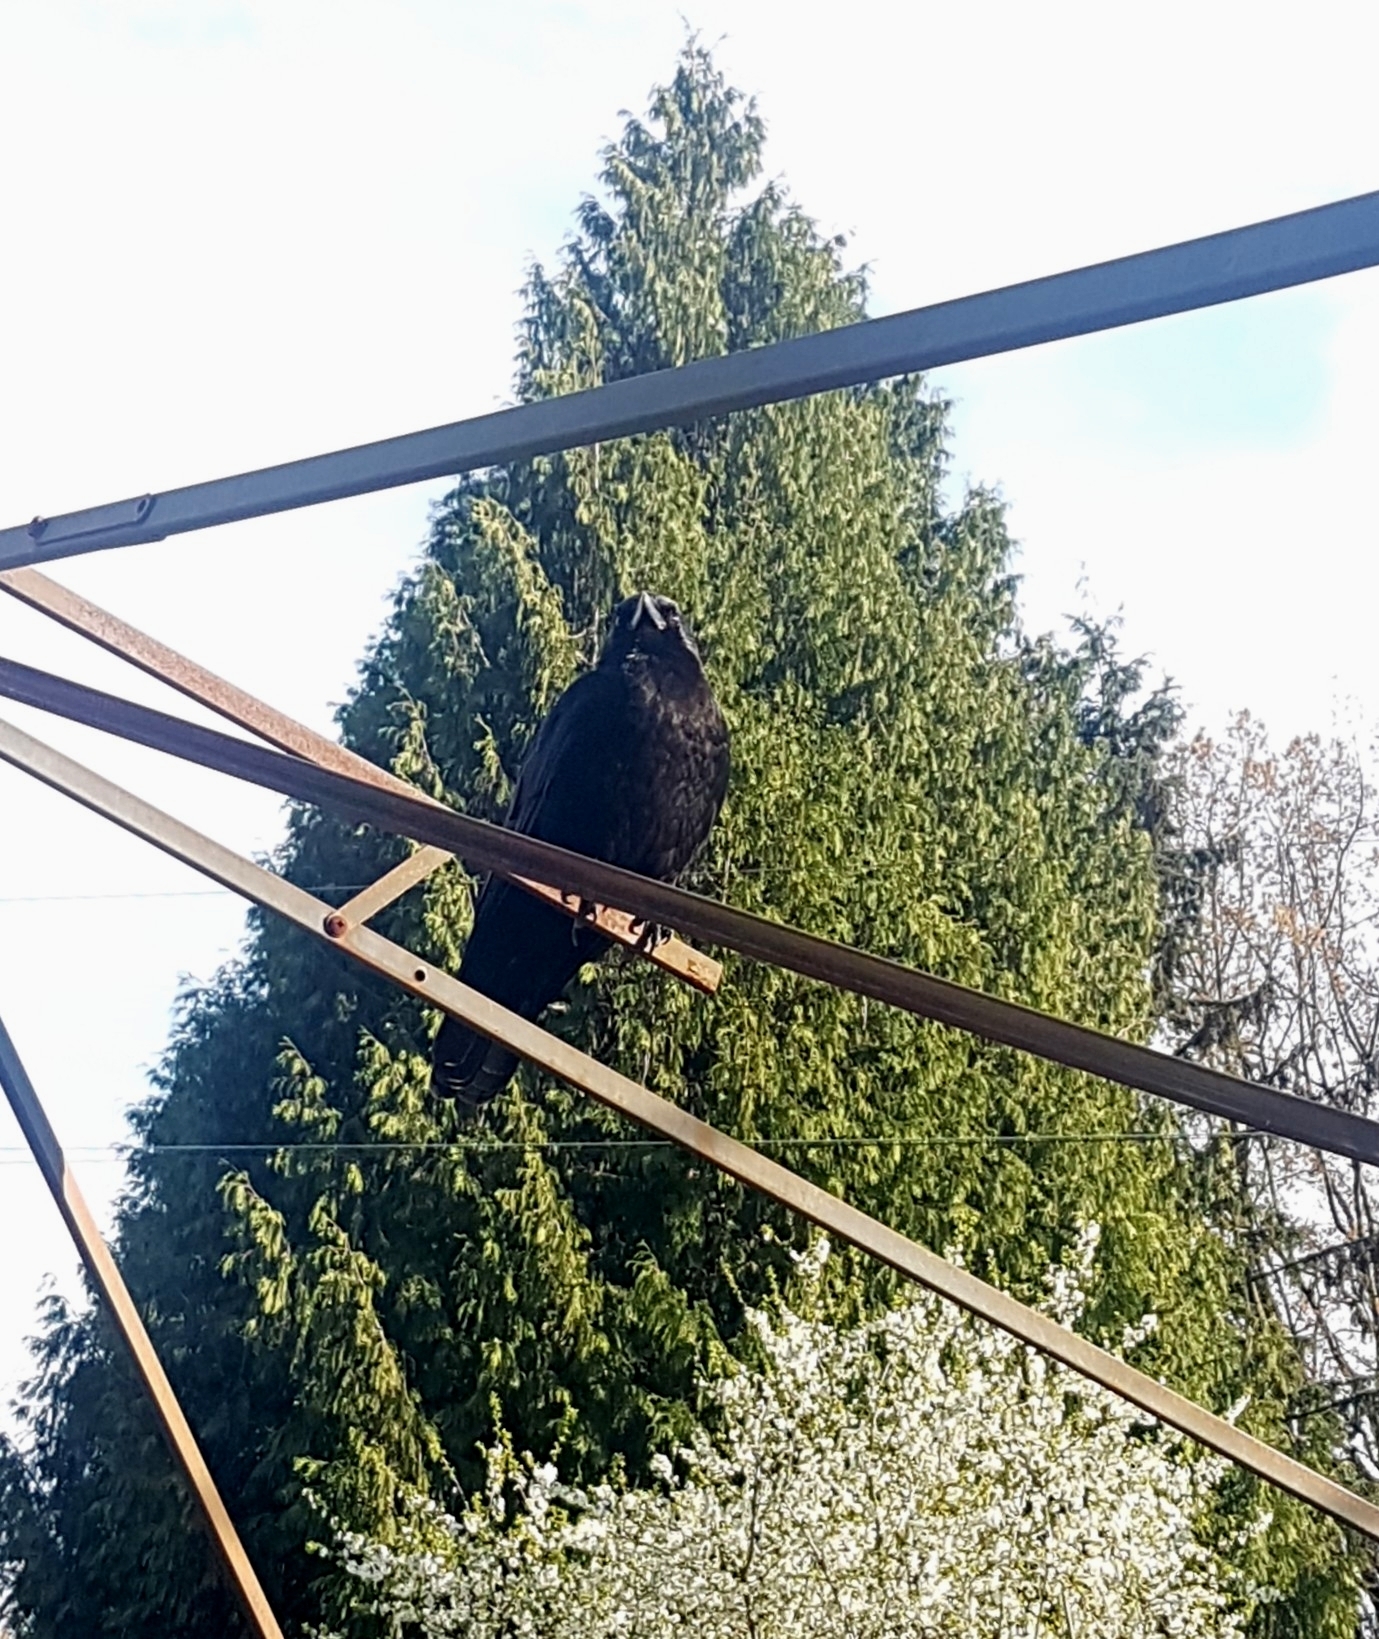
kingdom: Animalia
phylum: Chordata
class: Aves
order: Passeriformes
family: Corvidae
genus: Corvus
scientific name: Corvus brachyrhynchos
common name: American crow
